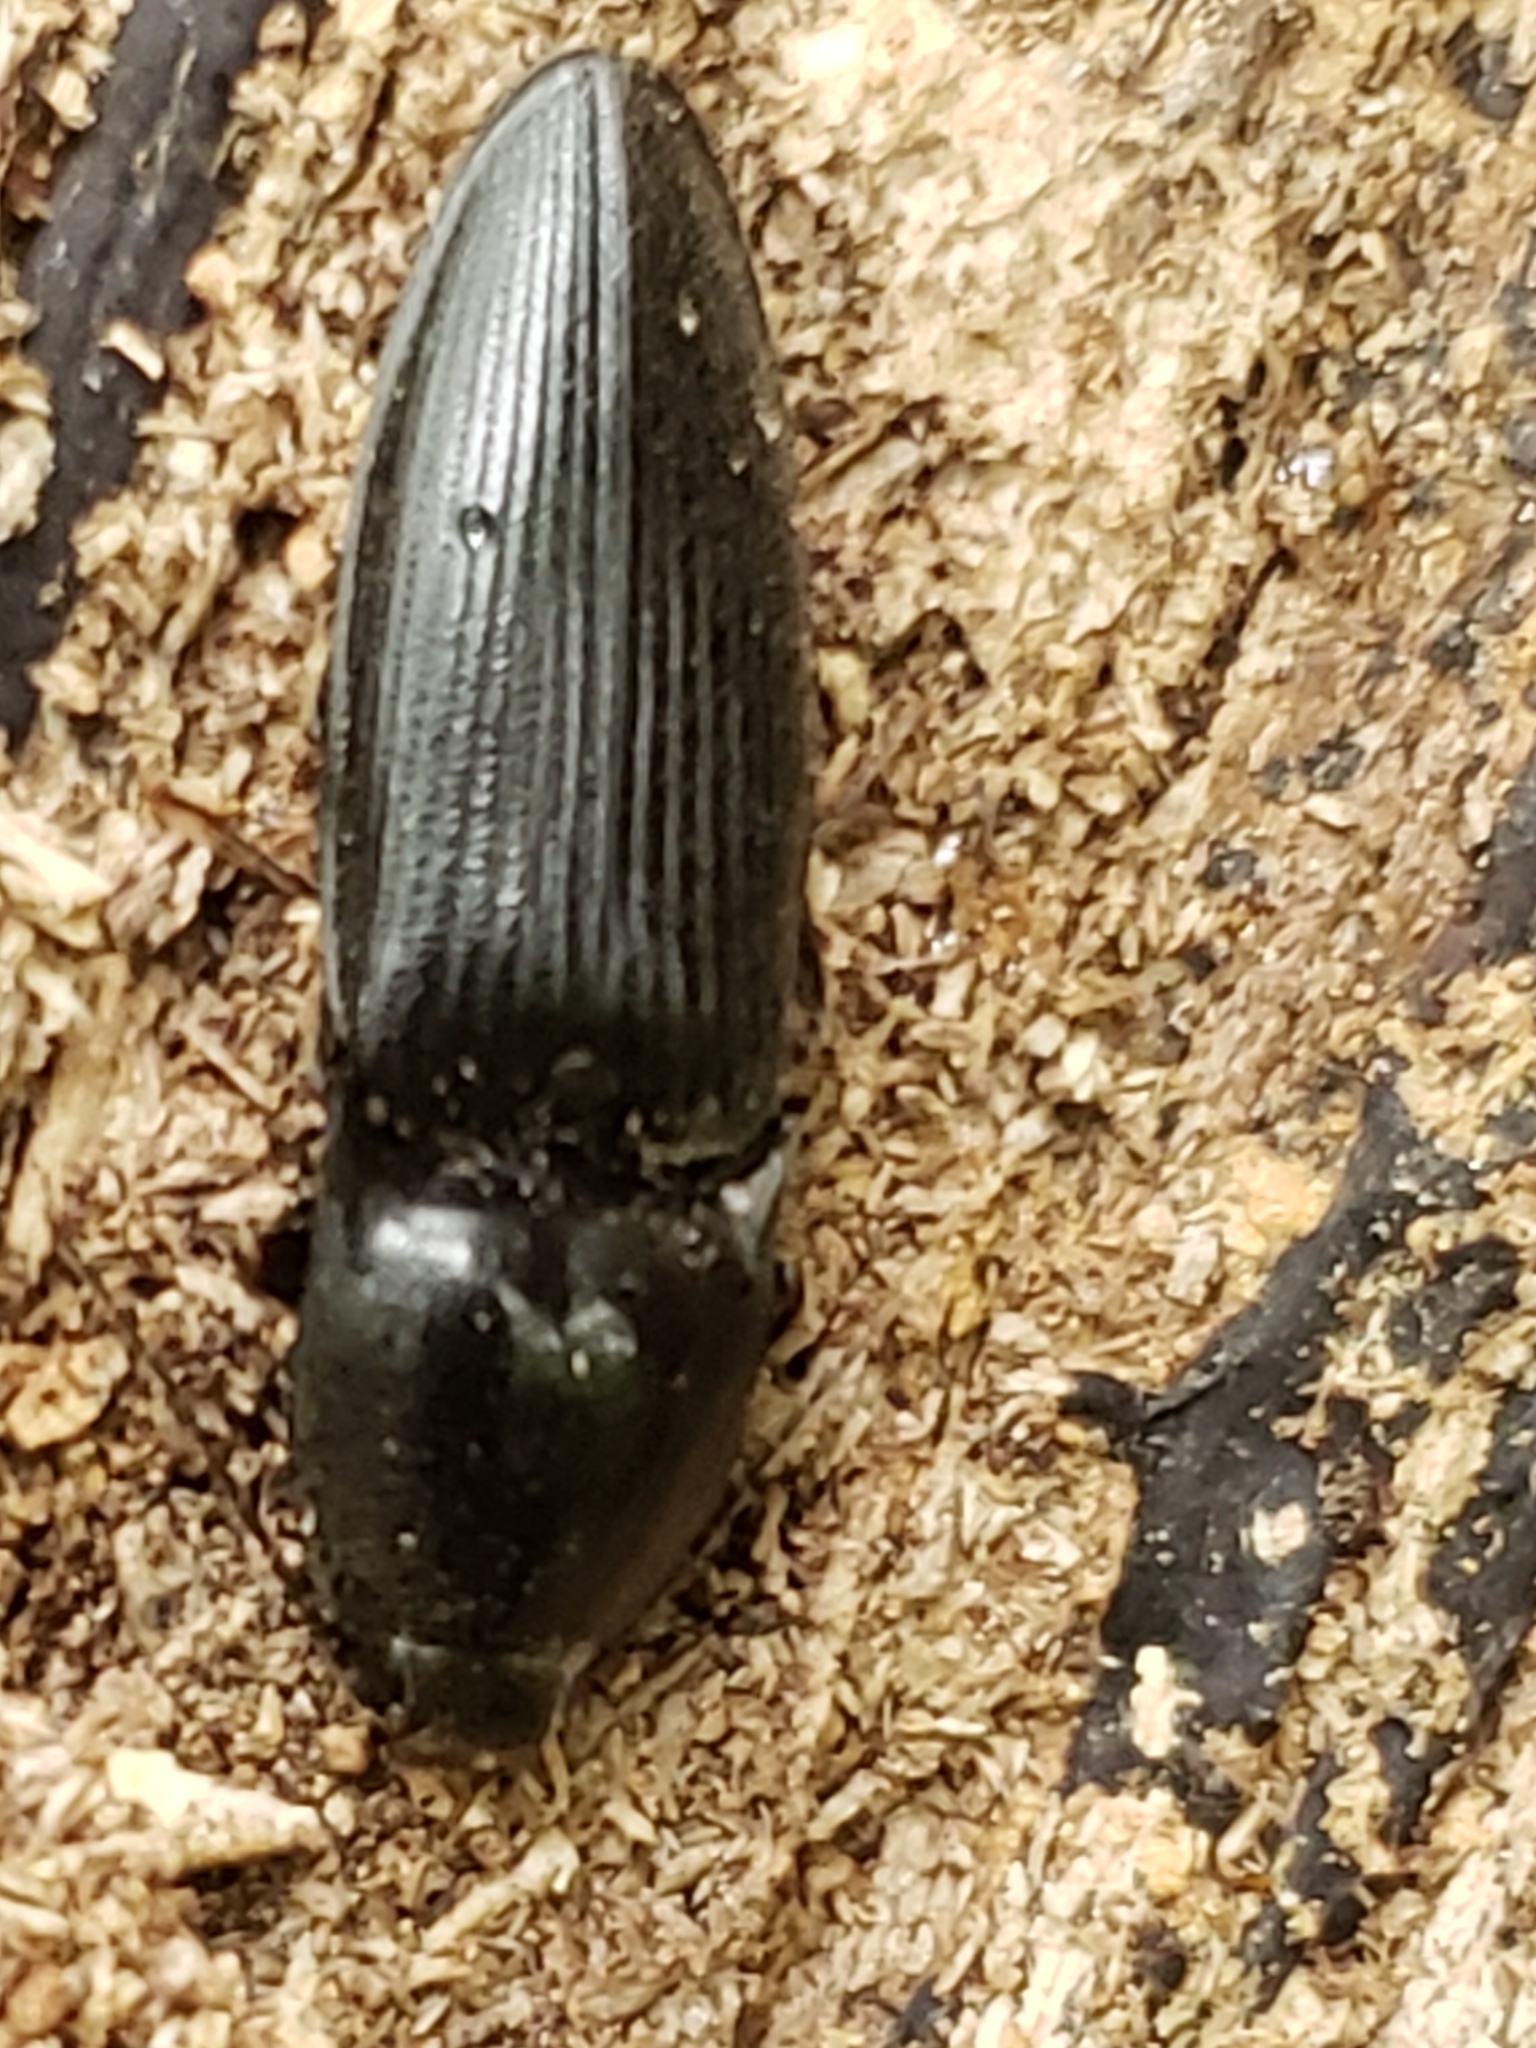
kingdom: Animalia
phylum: Arthropoda
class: Insecta
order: Coleoptera
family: Elateridae
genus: Neopristilophus
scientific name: Neopristilophus
